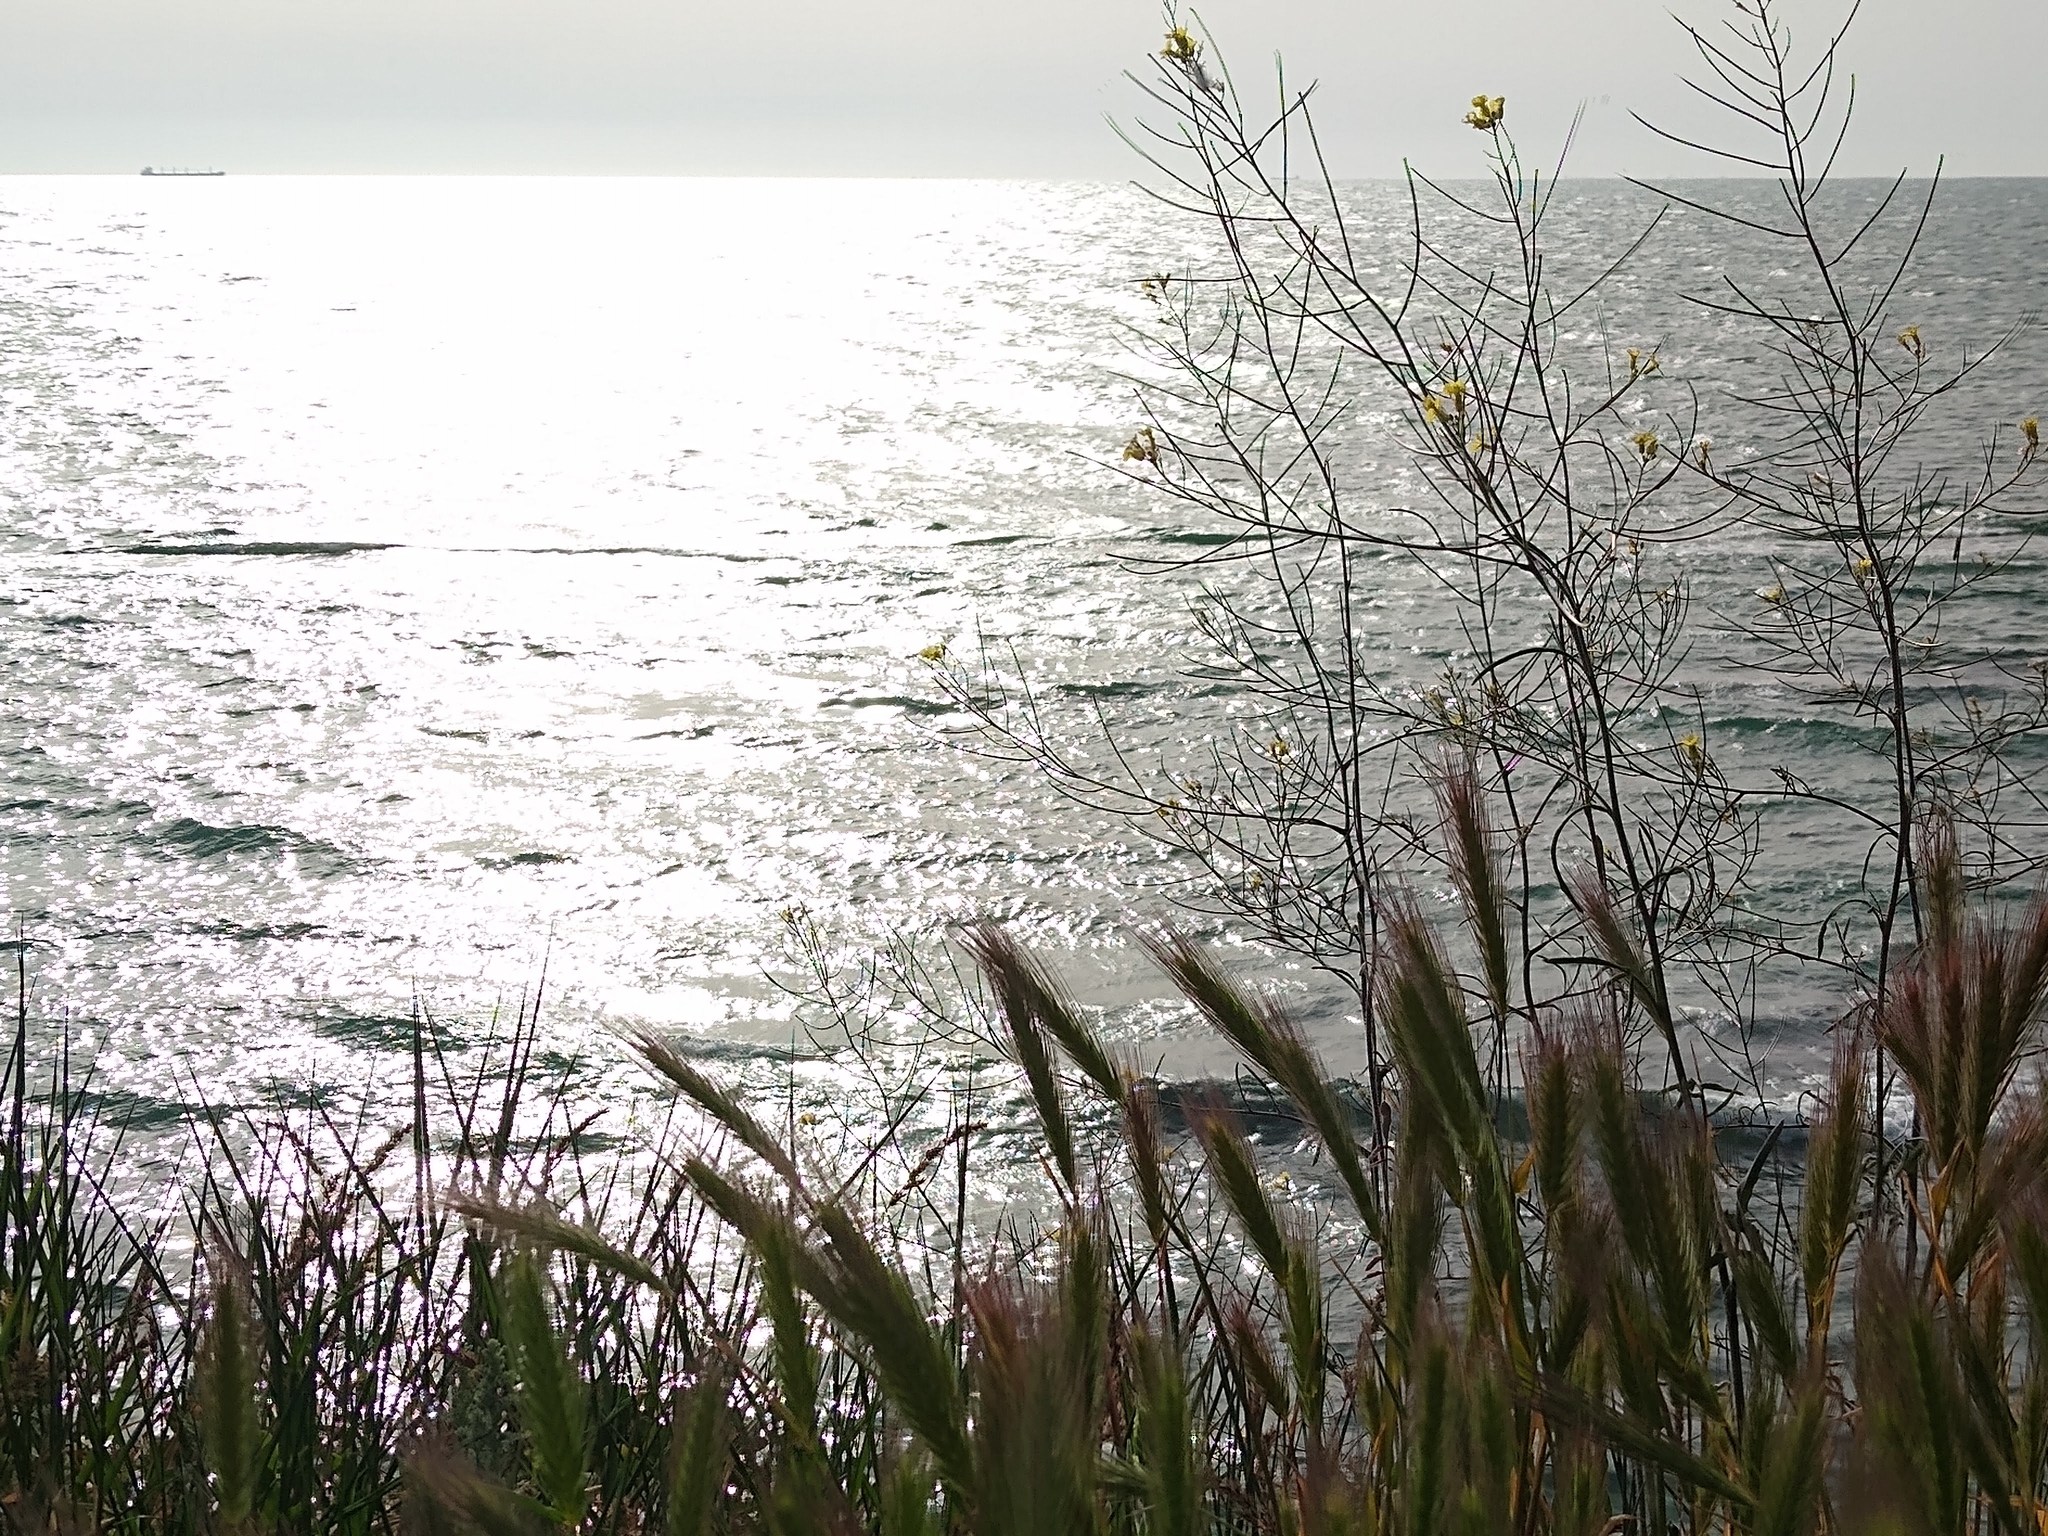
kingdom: Plantae
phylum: Tracheophyta
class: Magnoliopsida
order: Brassicales
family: Brassicaceae
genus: Sisymbrium
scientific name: Sisymbrium orientale
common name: Eastern rocket
